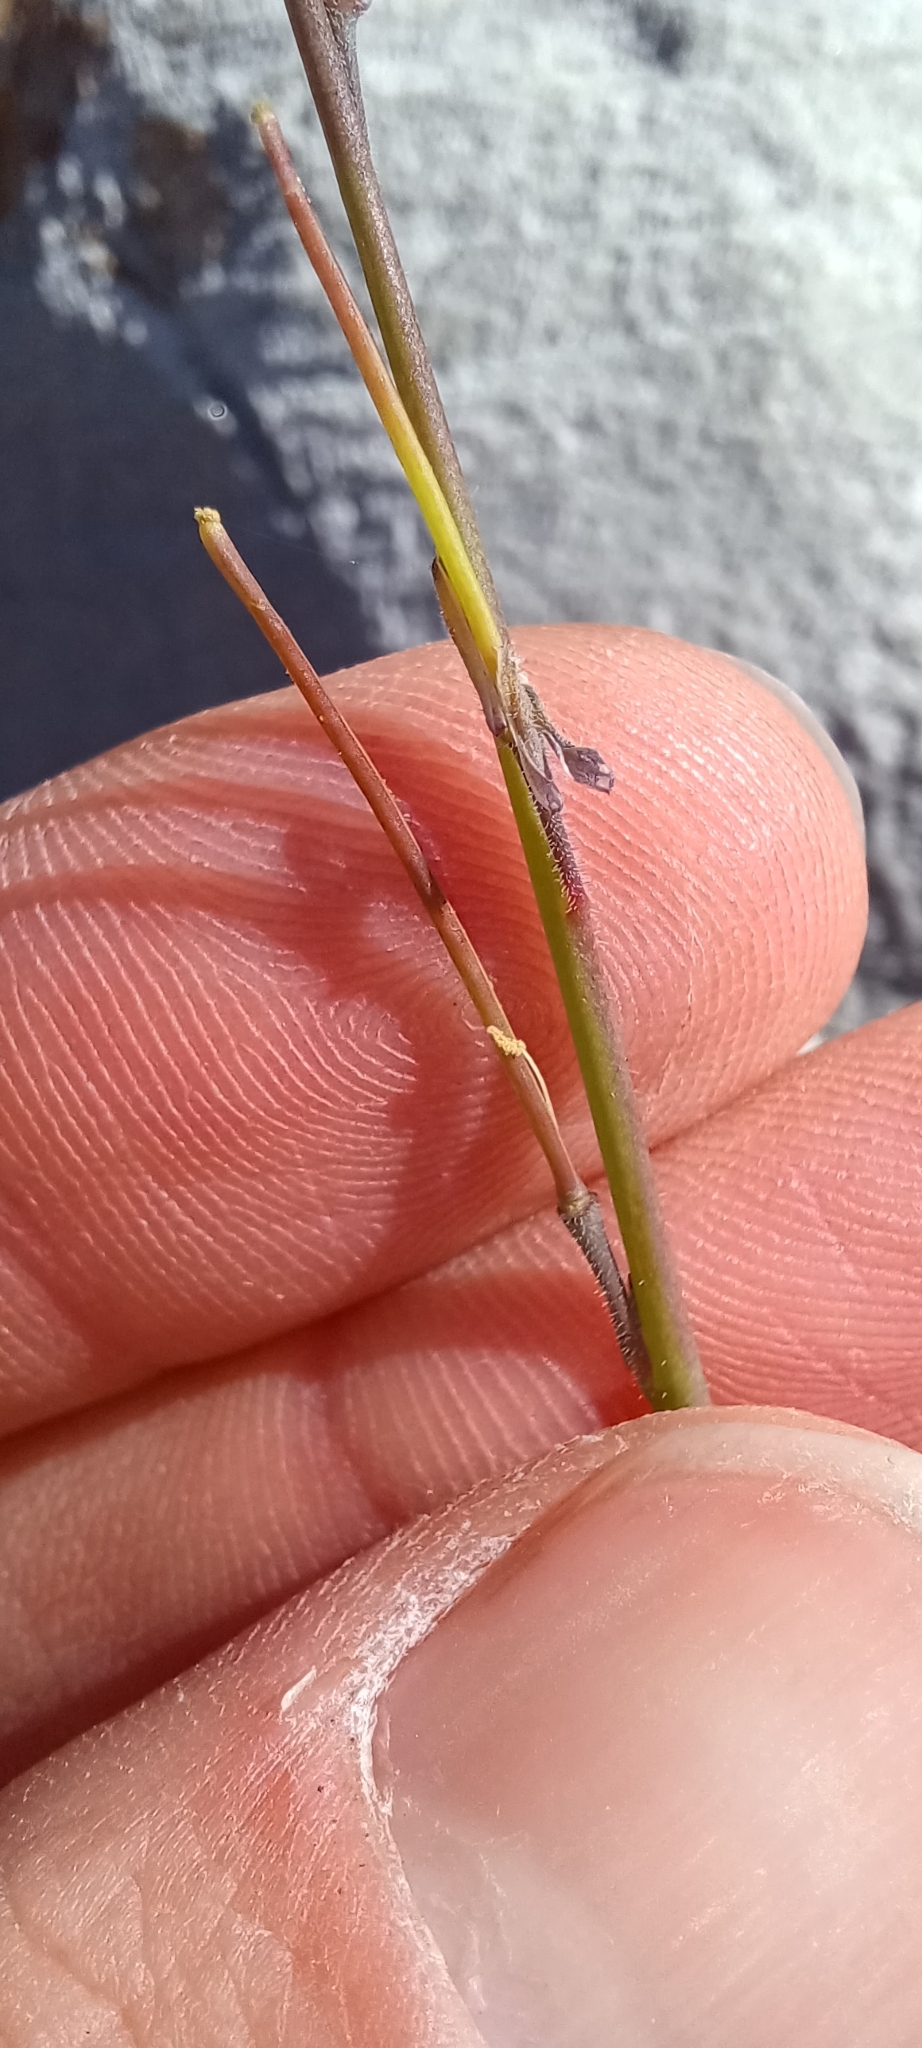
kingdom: Plantae
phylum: Tracheophyta
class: Magnoliopsida
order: Brassicales
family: Brassicaceae
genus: Heliophila
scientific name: Heliophila digitata
